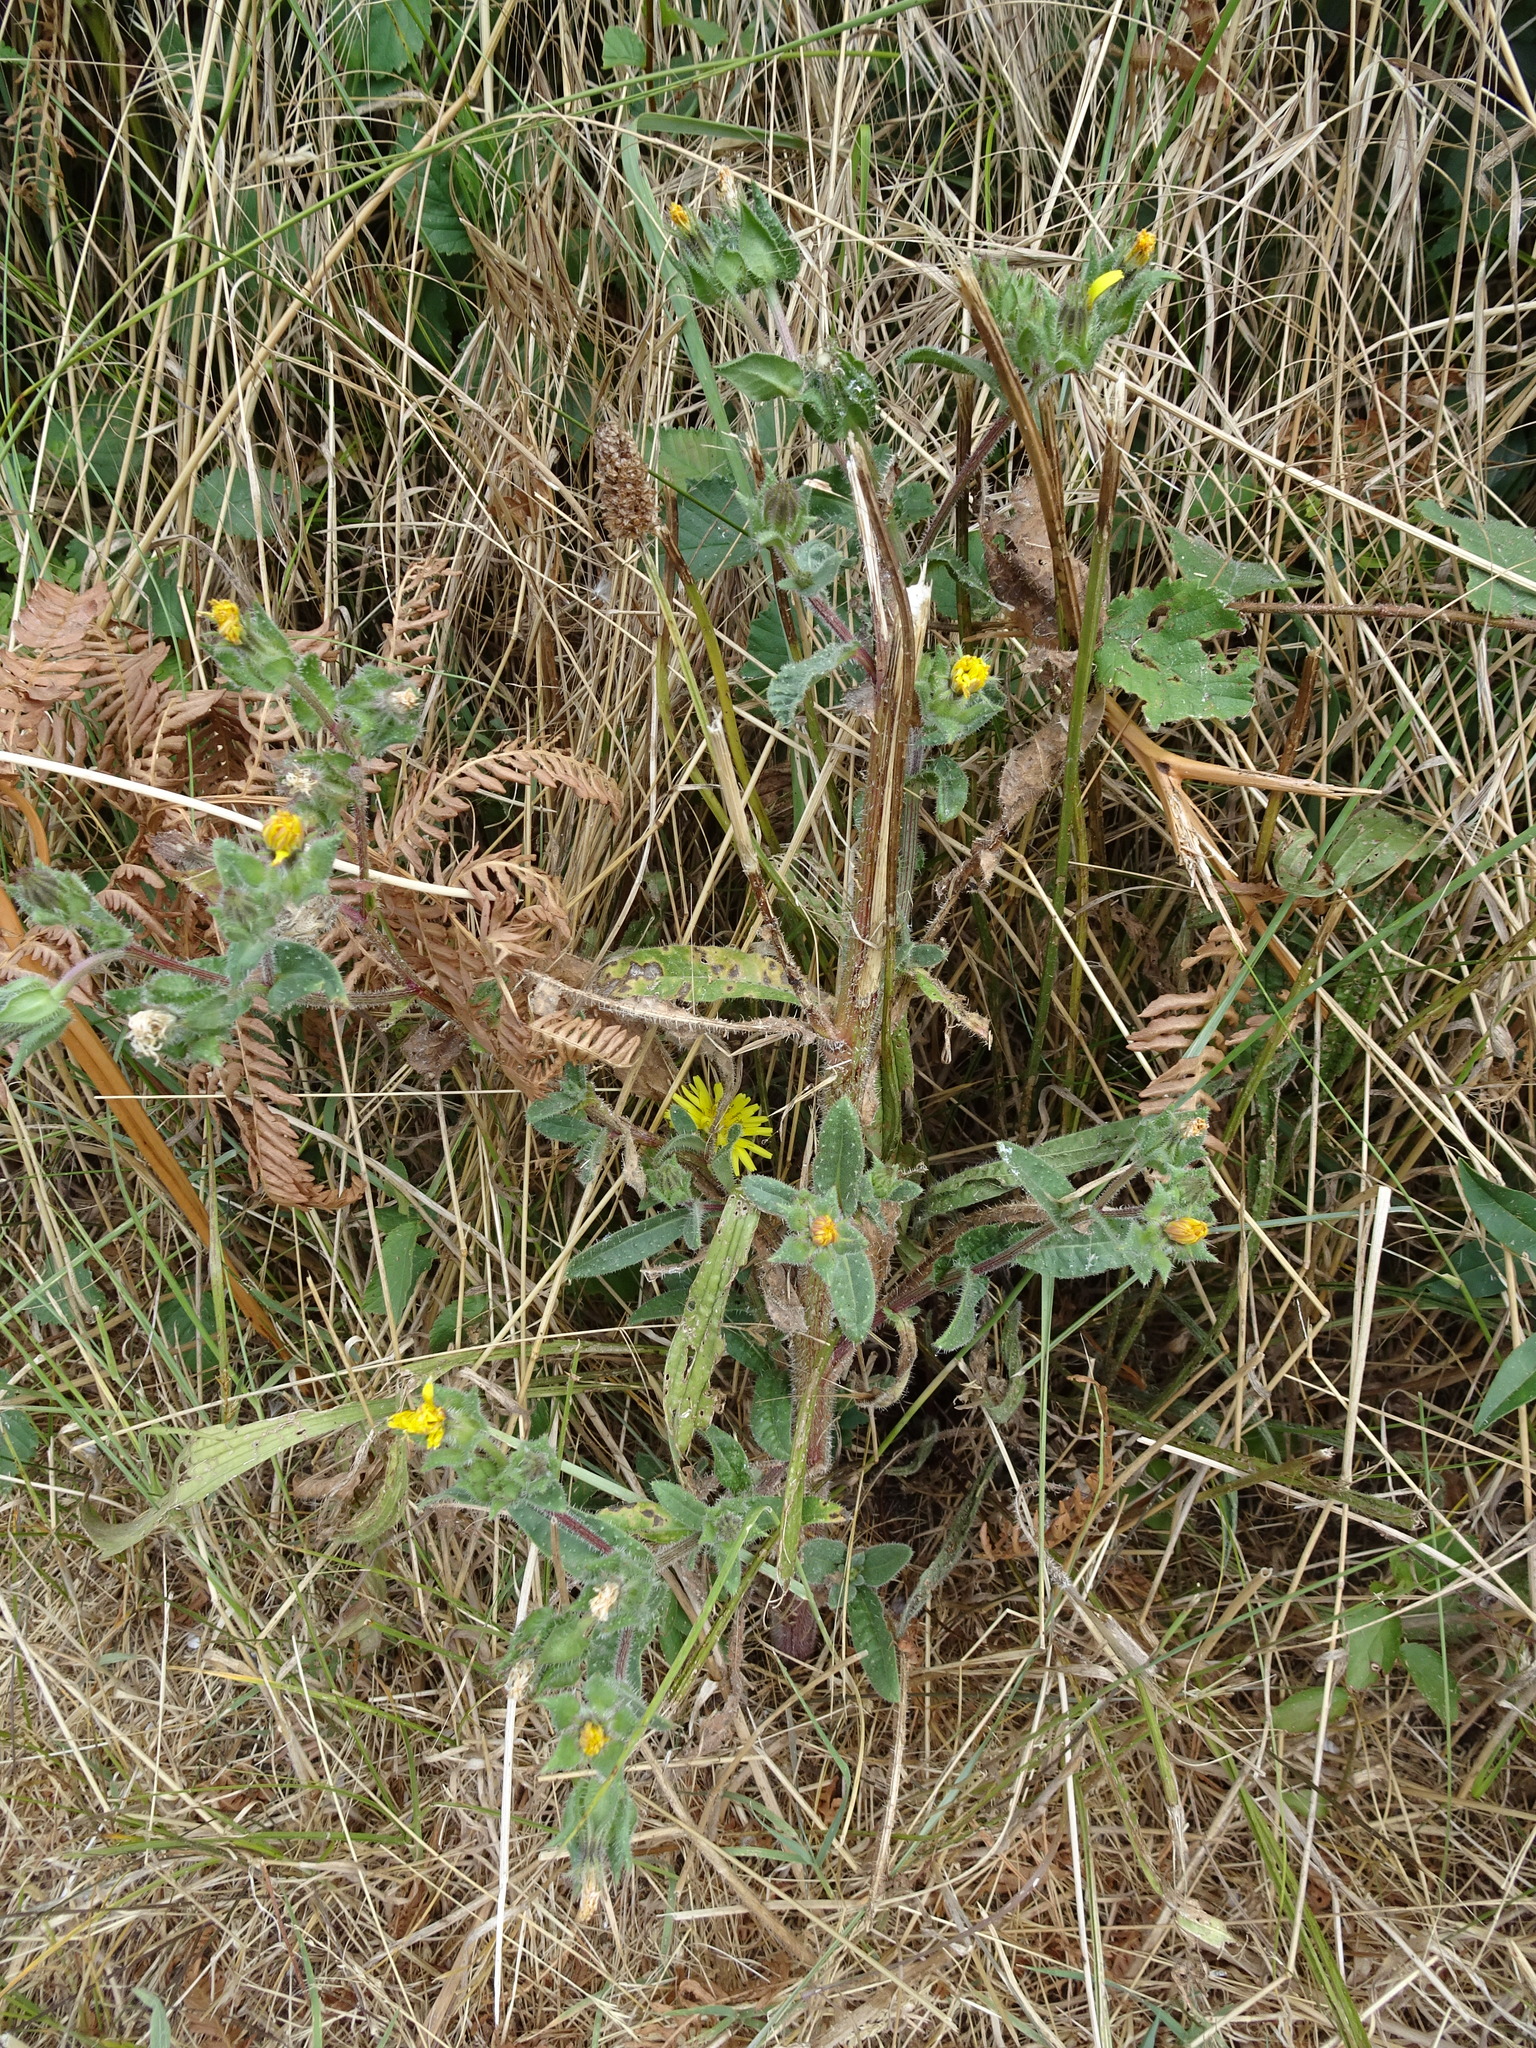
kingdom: Plantae
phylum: Tracheophyta
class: Magnoliopsida
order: Asterales
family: Asteraceae
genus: Helminthotheca
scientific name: Helminthotheca echioides
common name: Ox-tongue
